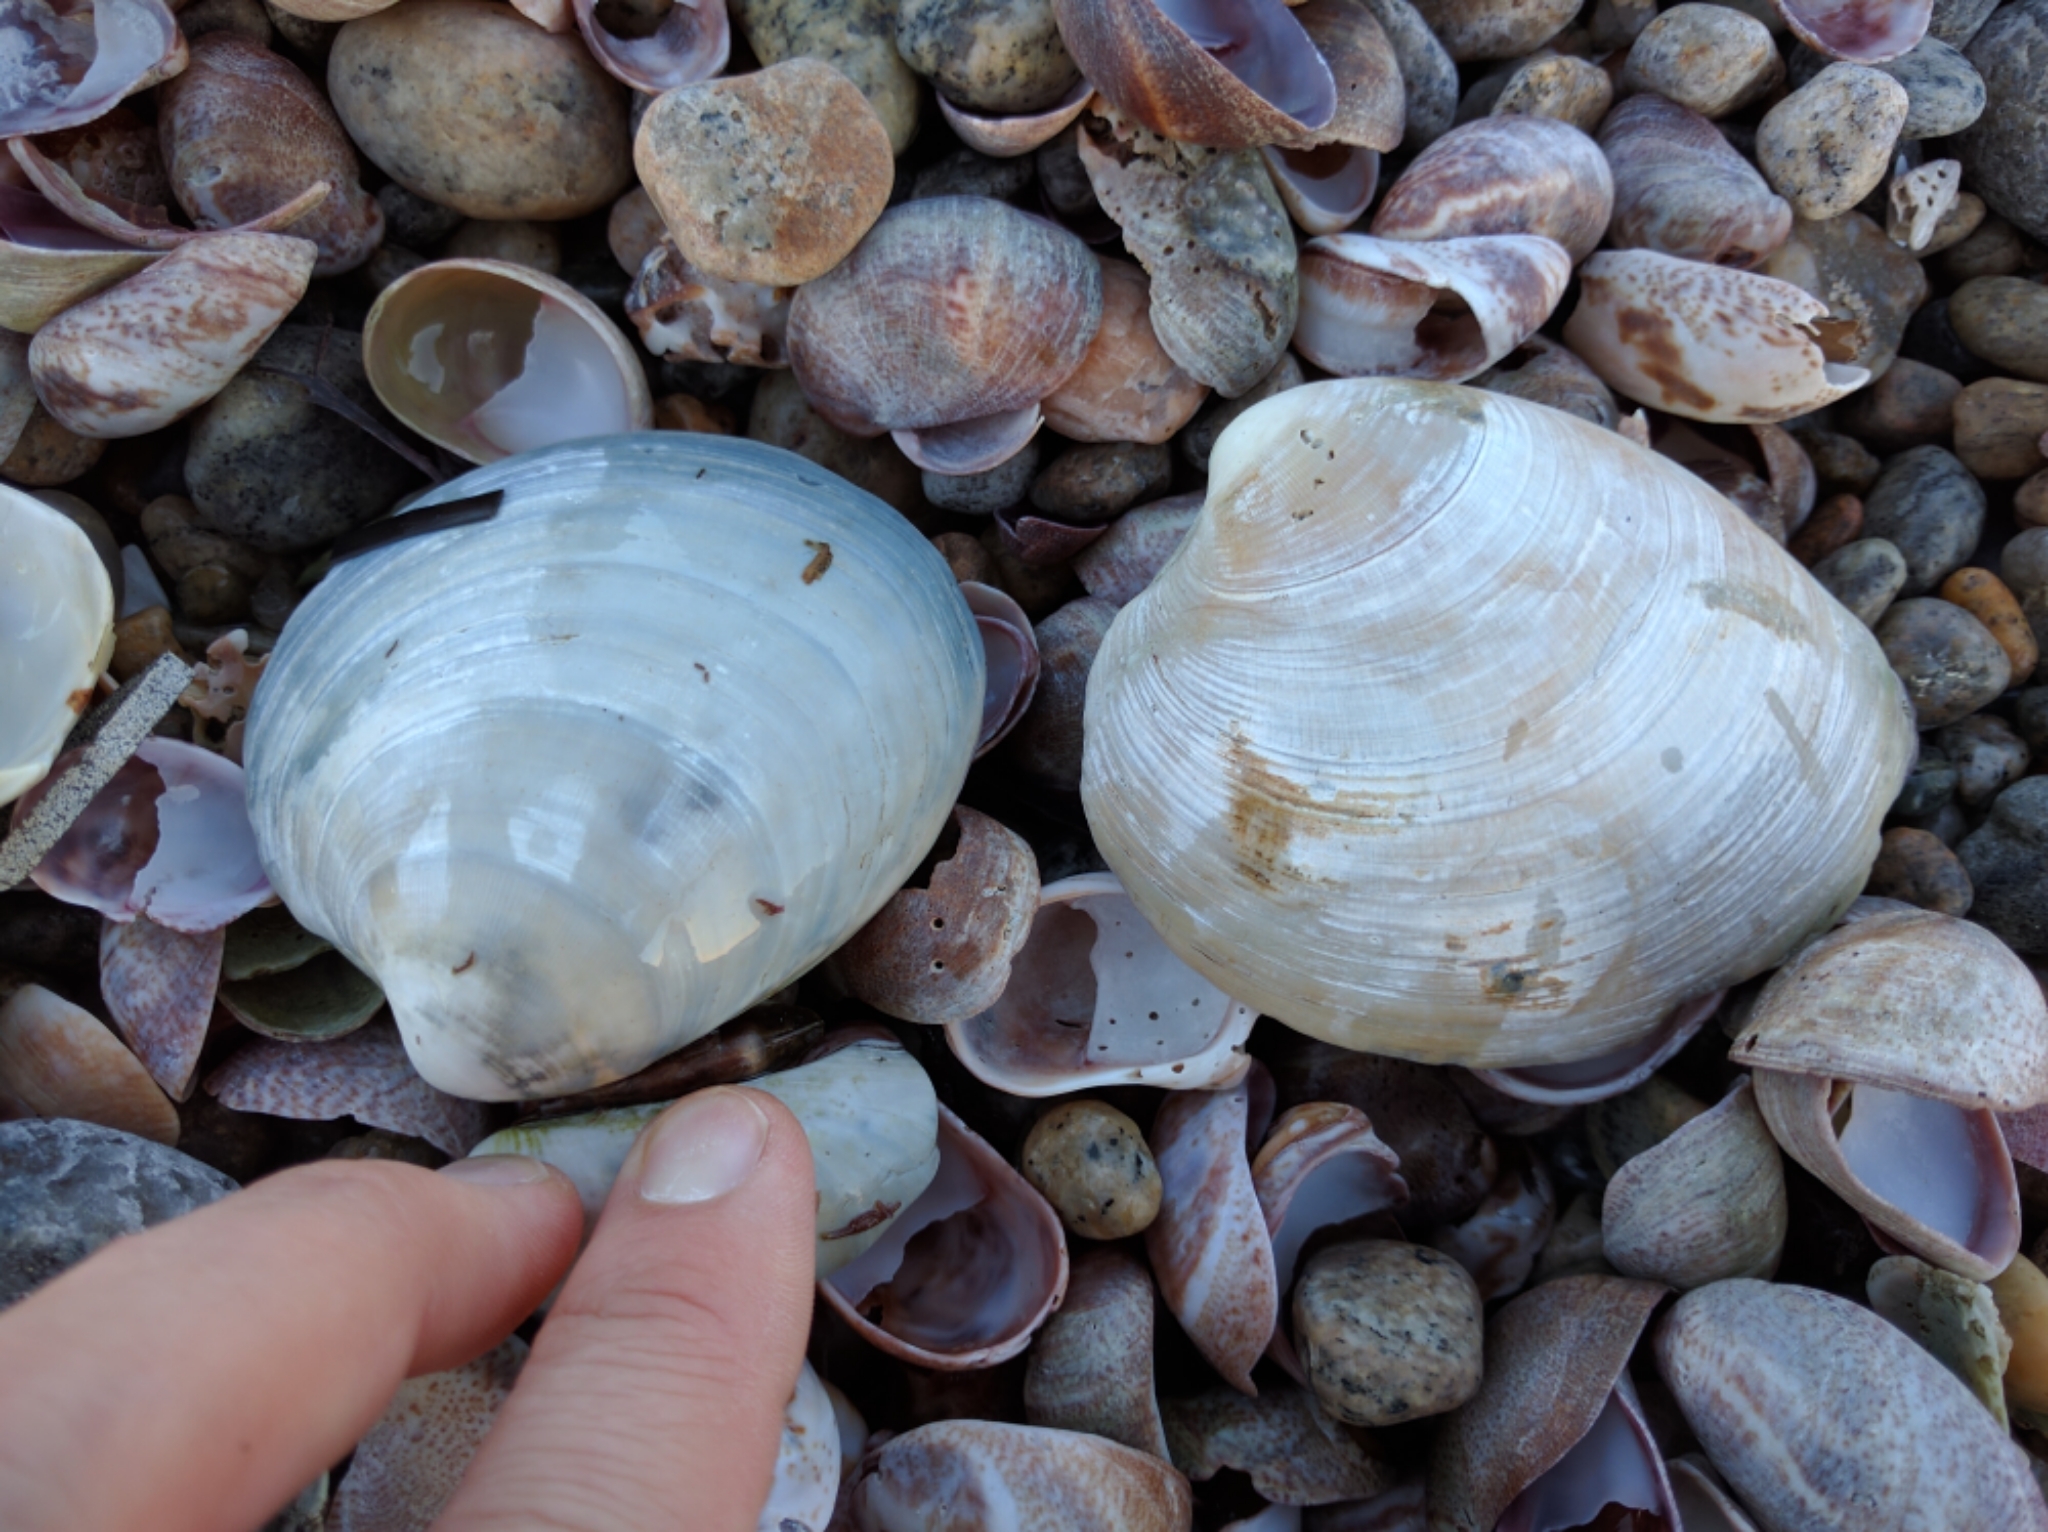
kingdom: Animalia
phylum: Mollusca
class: Bivalvia
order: Venerida
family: Veneridae
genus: Mercenaria
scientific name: Mercenaria mercenaria
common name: American hard-shelled clam
